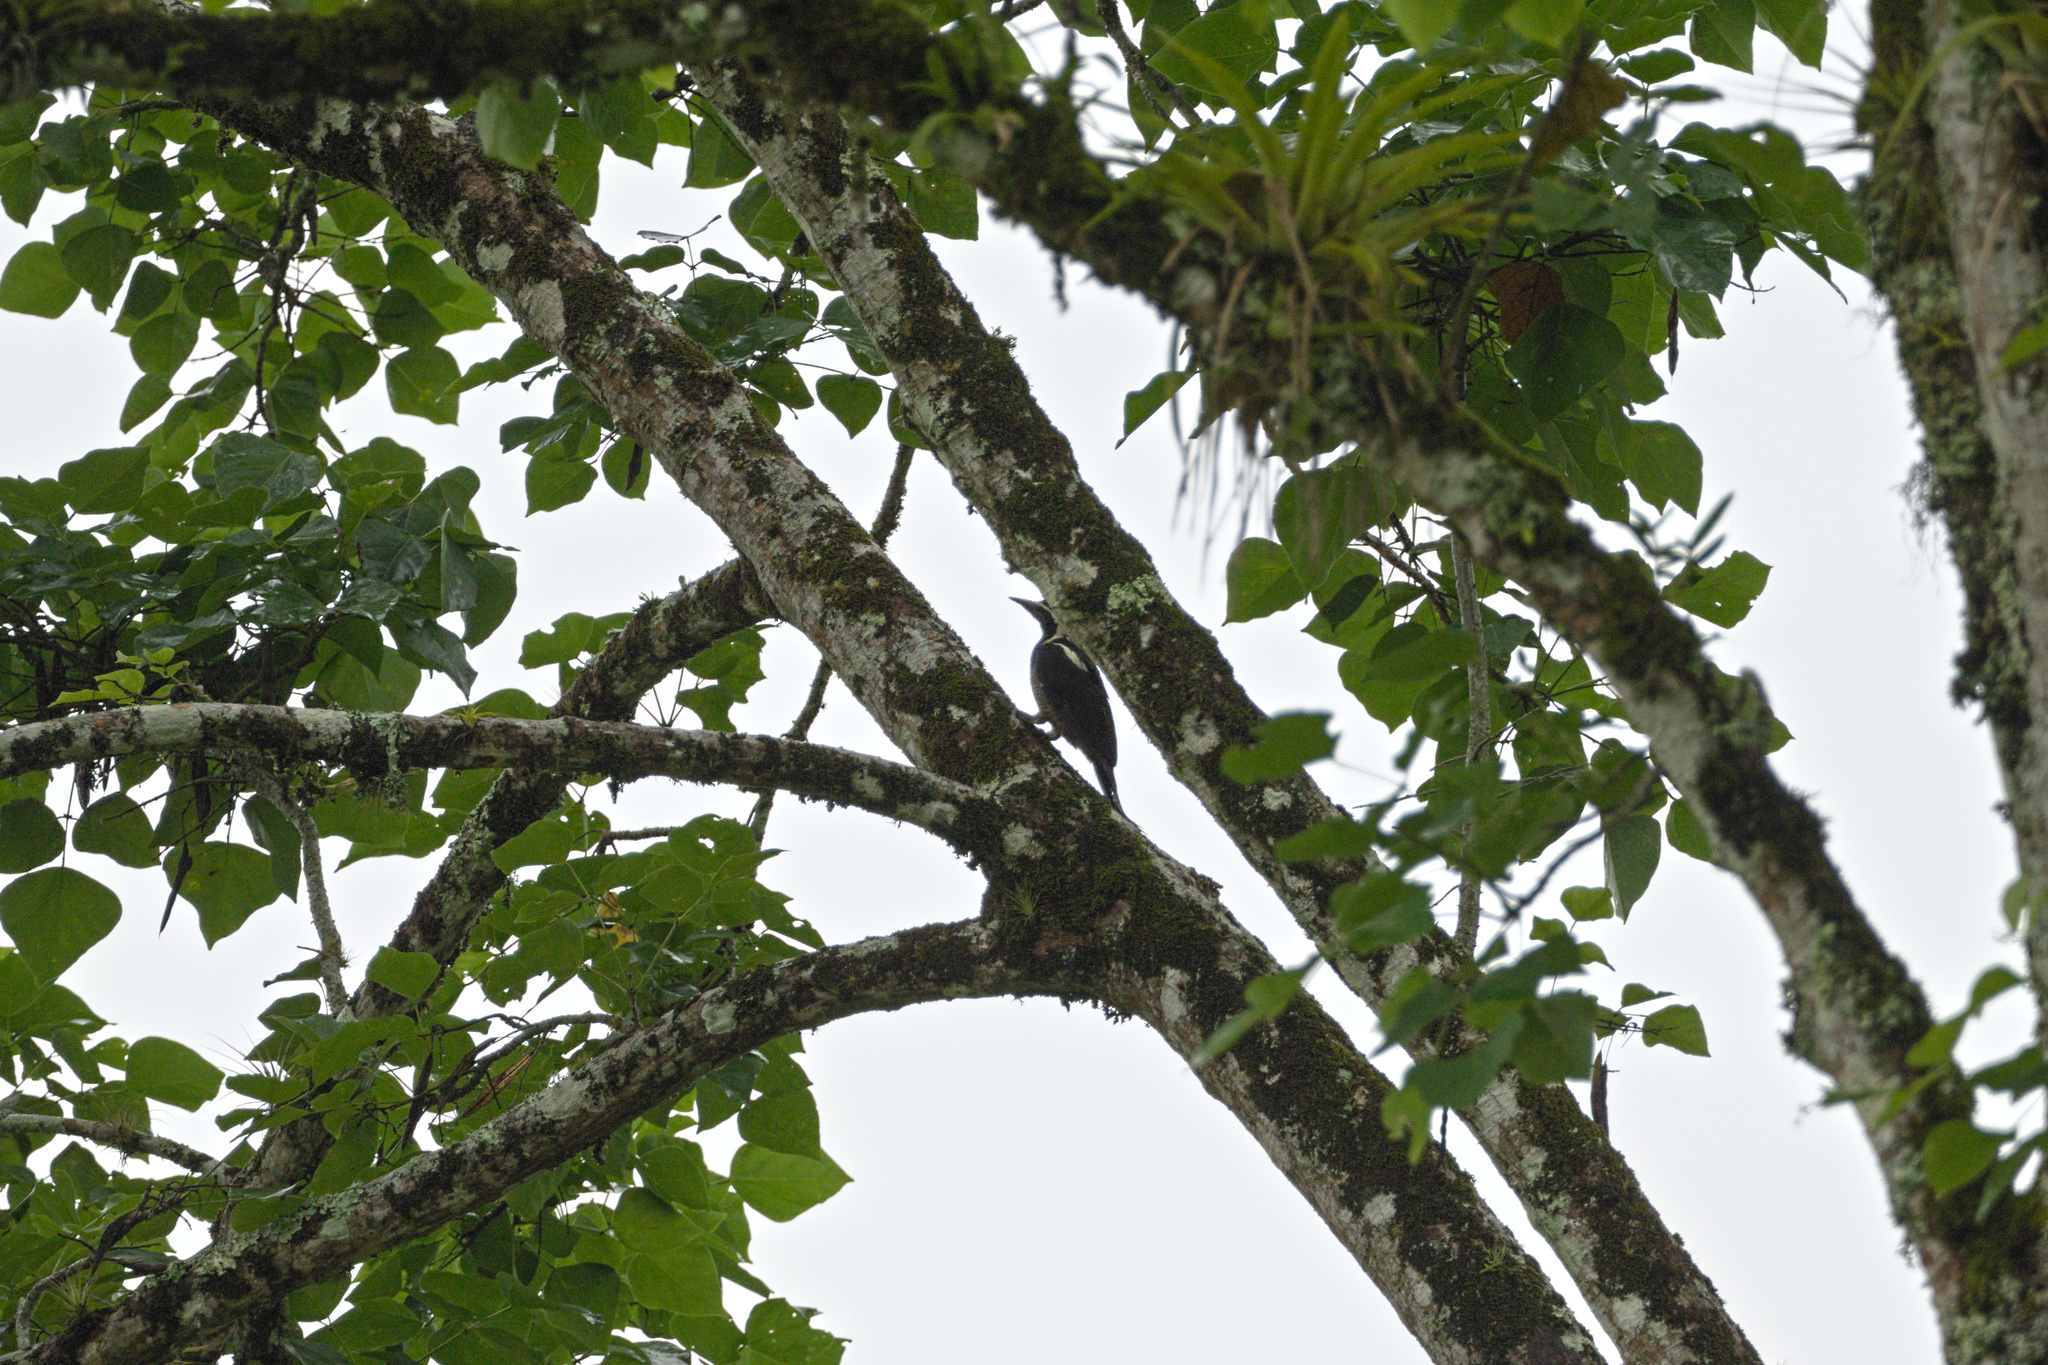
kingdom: Animalia
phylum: Chordata
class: Aves
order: Piciformes
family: Picidae
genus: Dryocopus
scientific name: Dryocopus lineatus
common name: Lineated woodpecker
